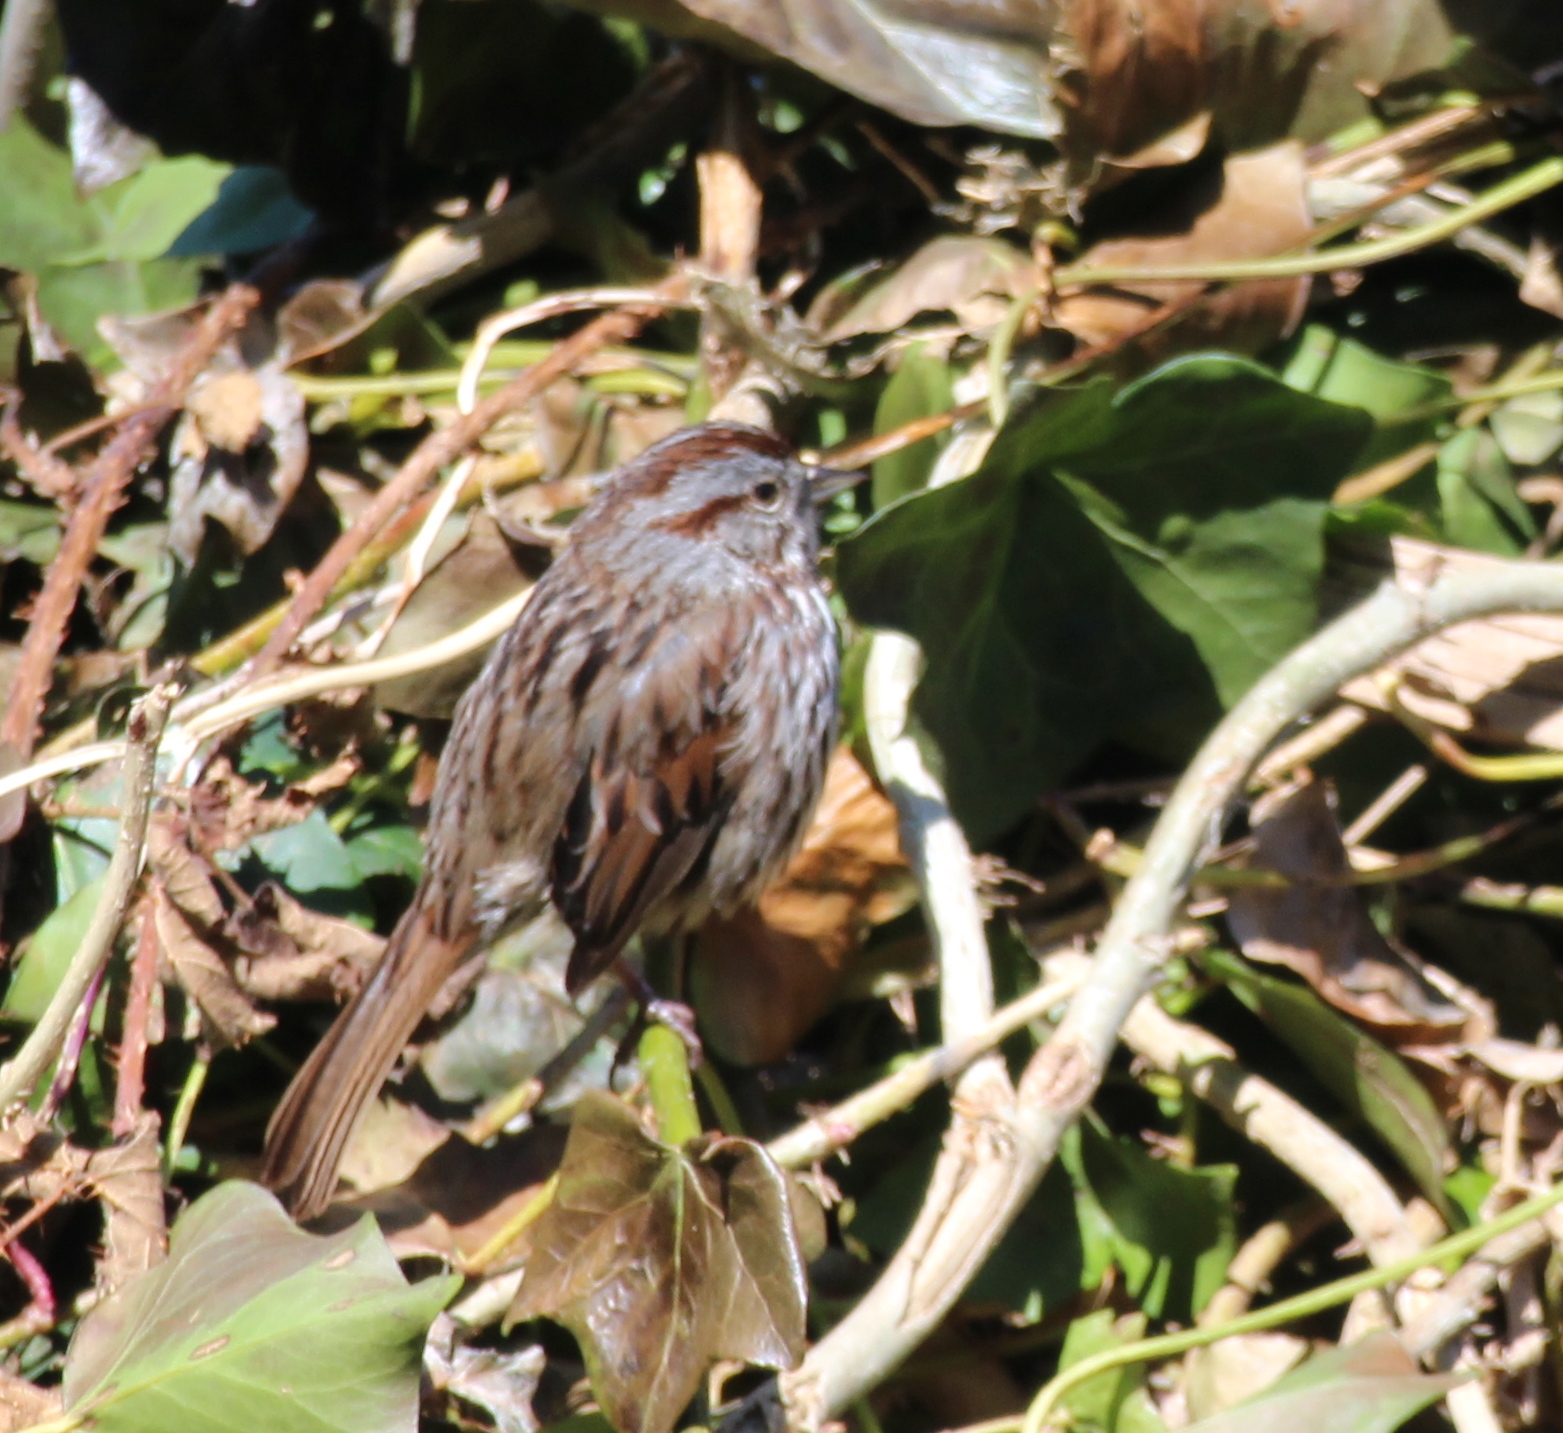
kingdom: Animalia
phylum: Chordata
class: Aves
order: Passeriformes
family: Passerellidae
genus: Melospiza
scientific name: Melospiza melodia
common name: Song sparrow
